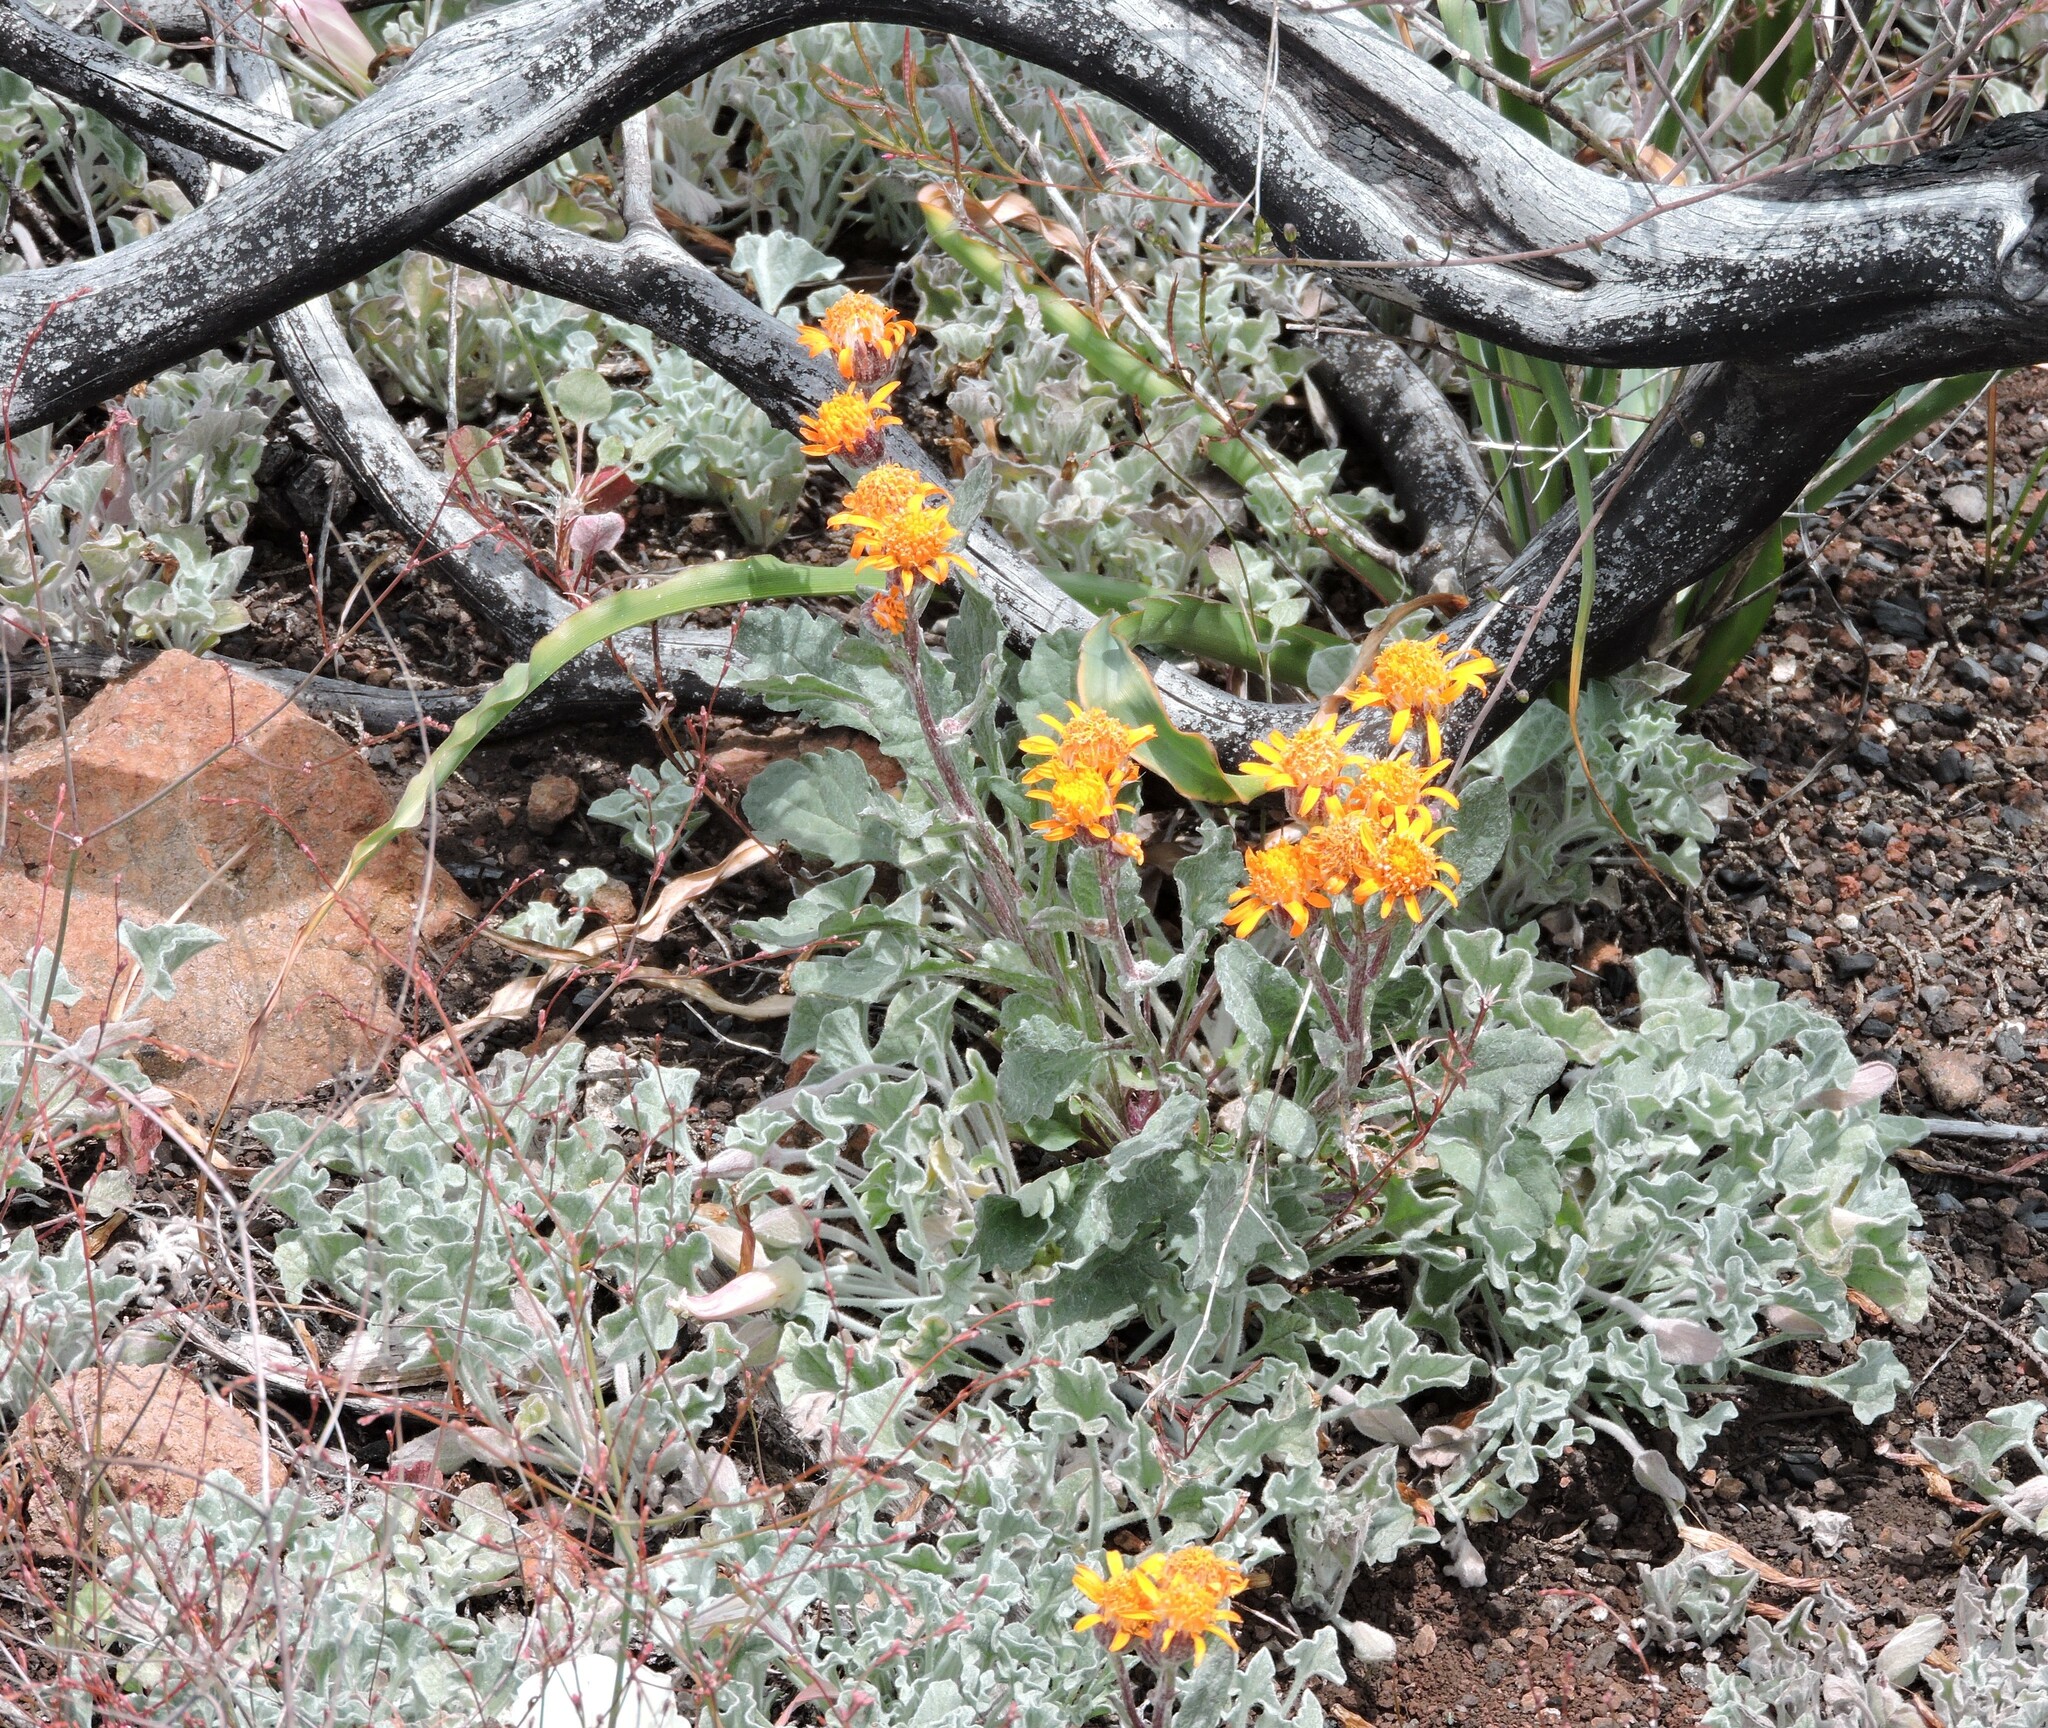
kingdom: Plantae
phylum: Tracheophyta
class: Magnoliopsida
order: Asterales
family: Asteraceae
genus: Packera
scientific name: Packera greenei
